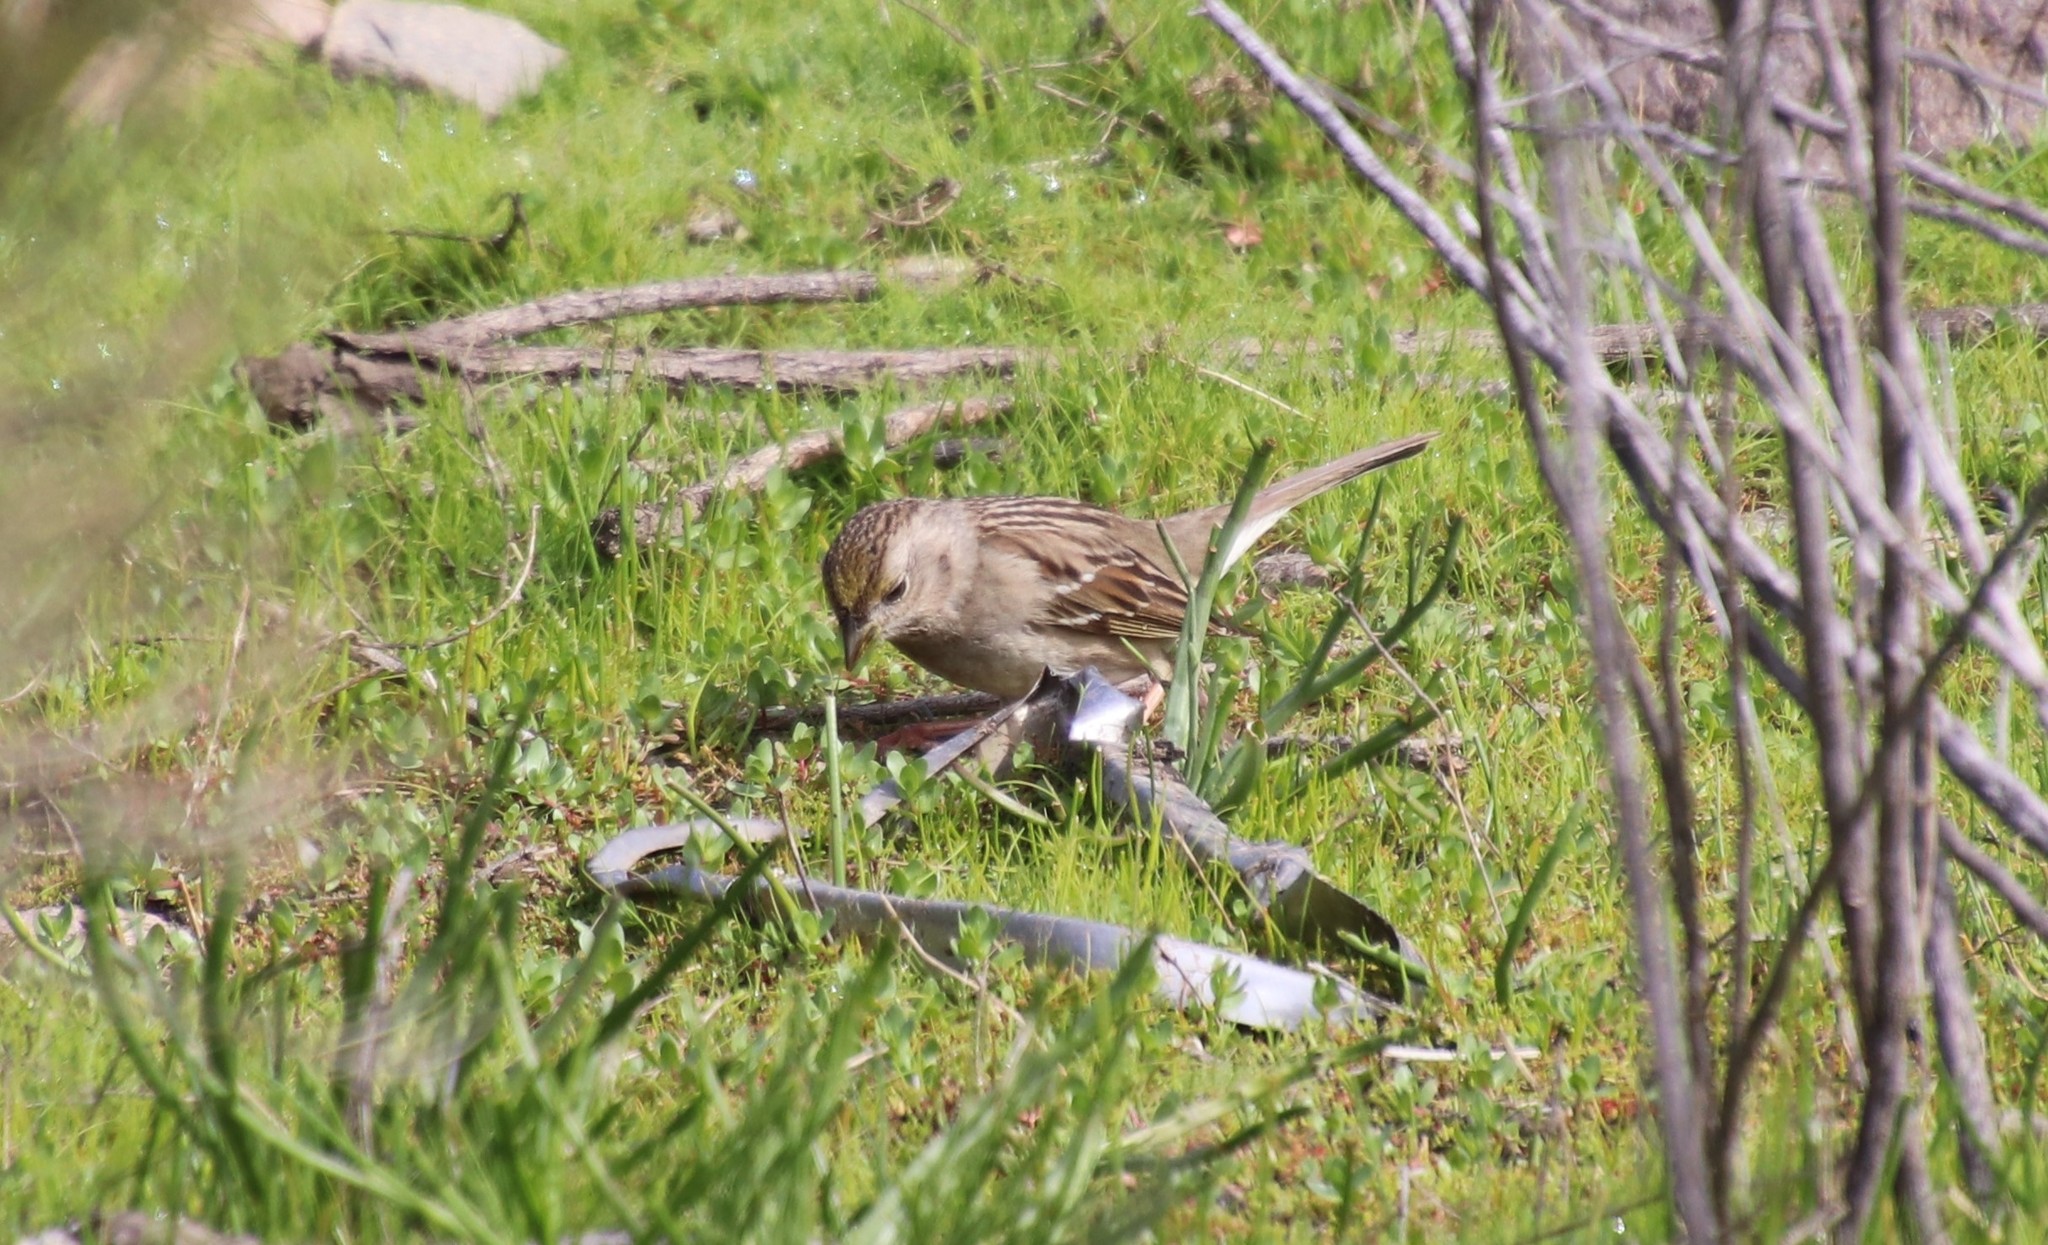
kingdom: Animalia
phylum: Chordata
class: Aves
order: Passeriformes
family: Passerellidae
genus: Zonotrichia
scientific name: Zonotrichia atricapilla
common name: Golden-crowned sparrow
